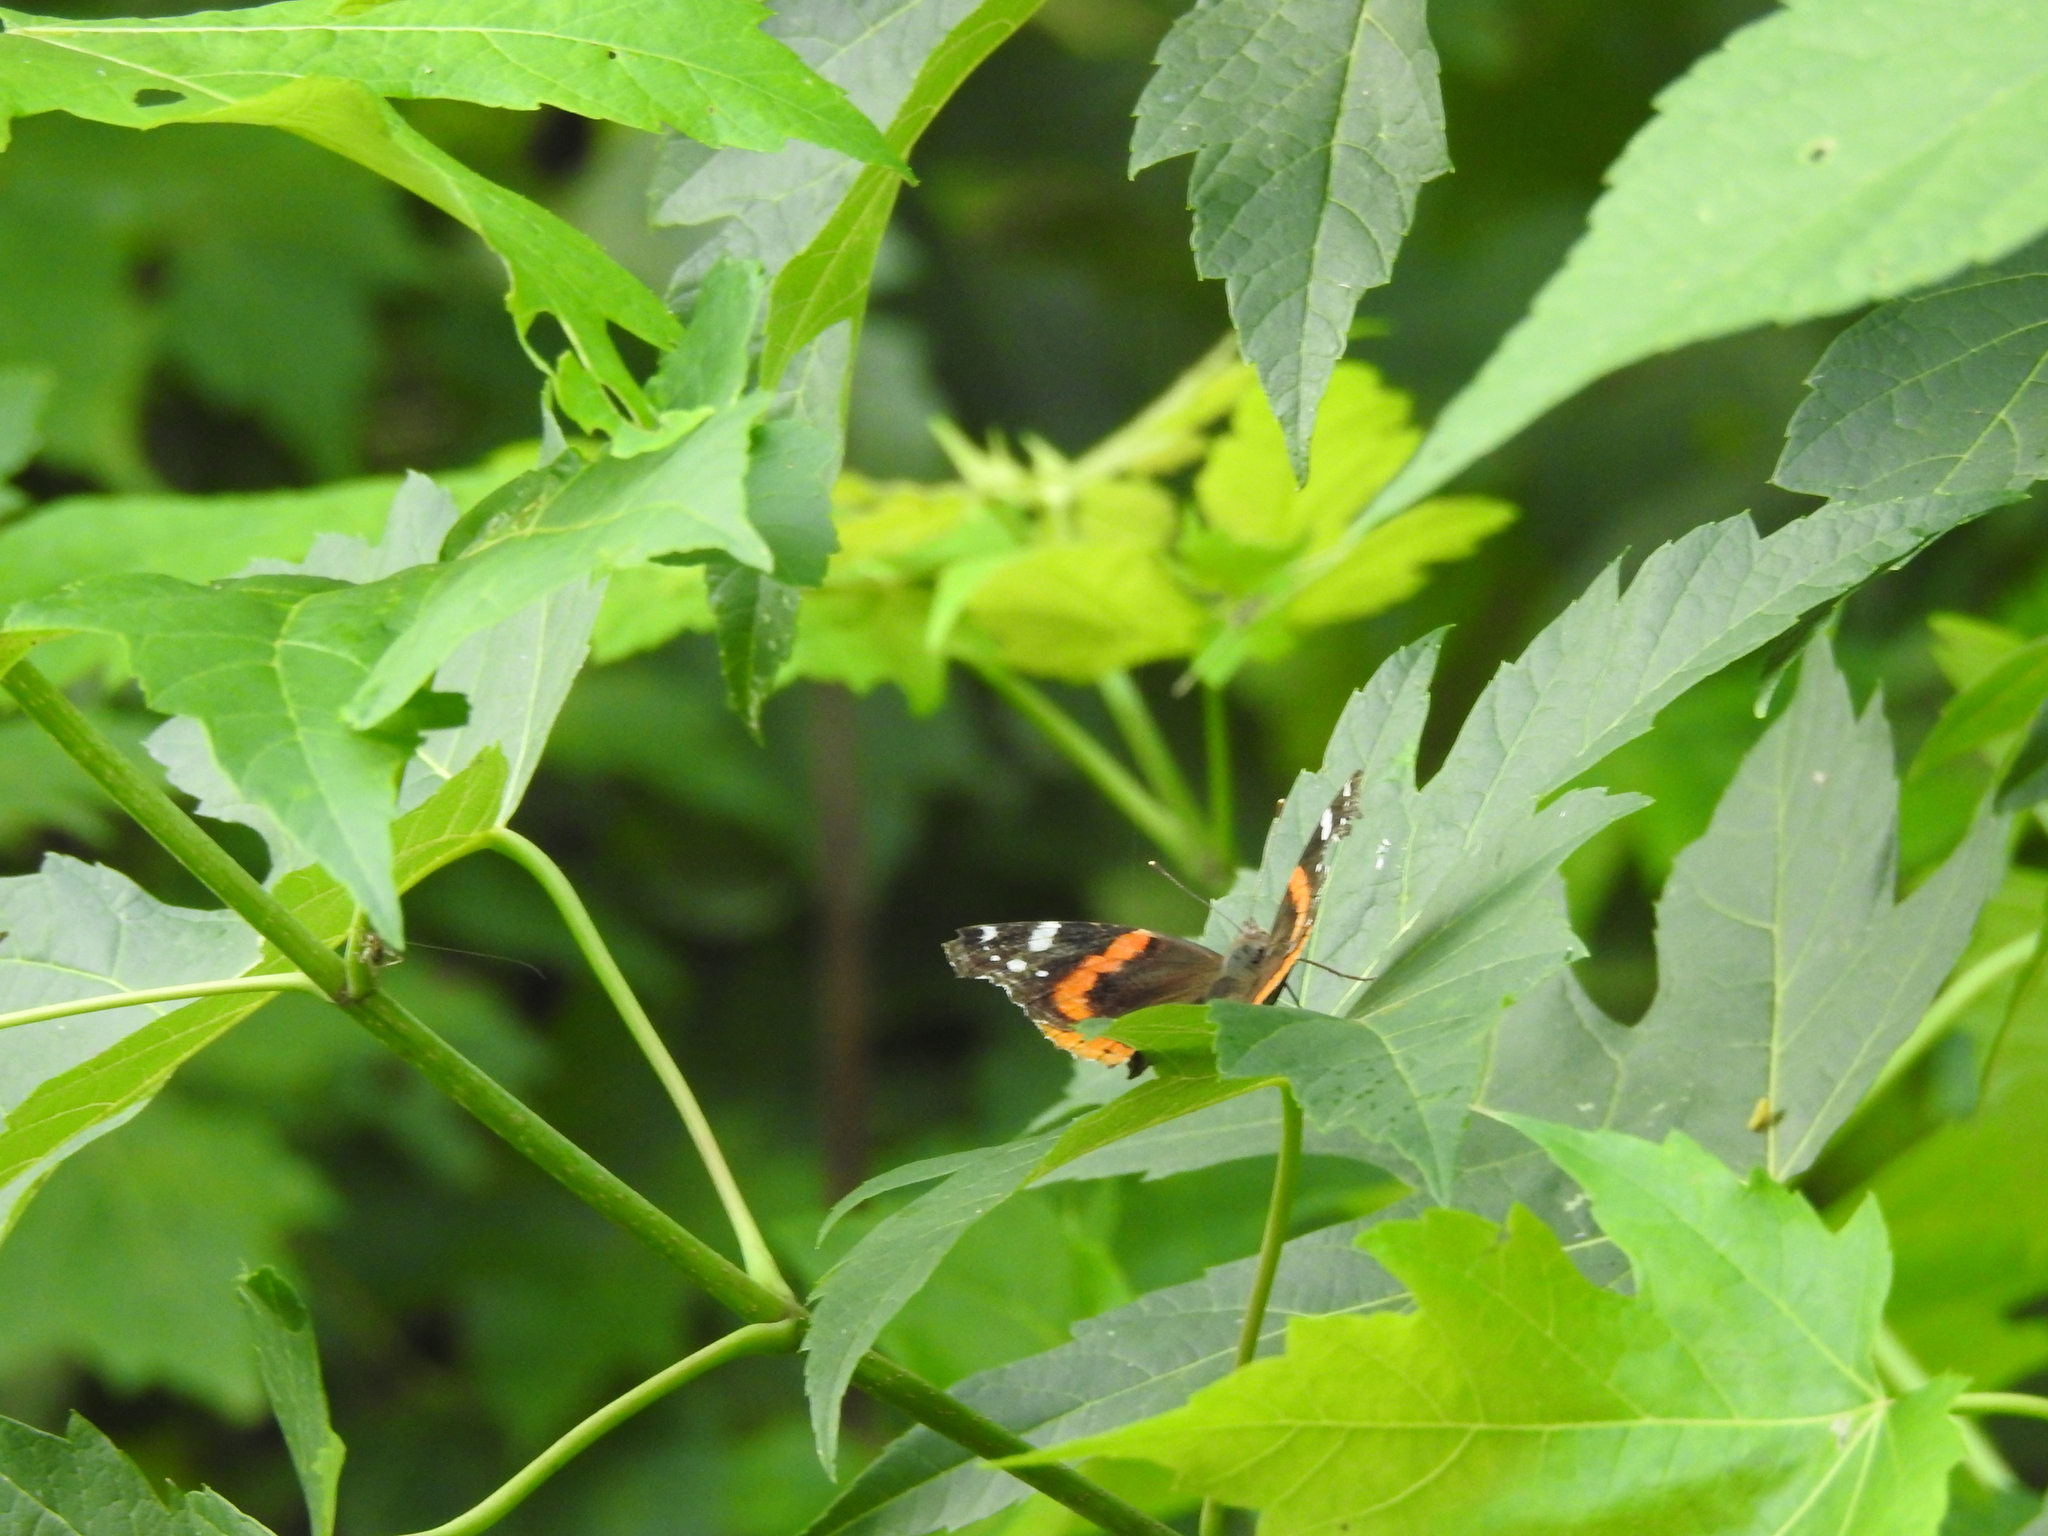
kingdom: Animalia
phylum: Arthropoda
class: Insecta
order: Lepidoptera
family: Nymphalidae
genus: Vanessa
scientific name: Vanessa atalanta
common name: Red admiral
